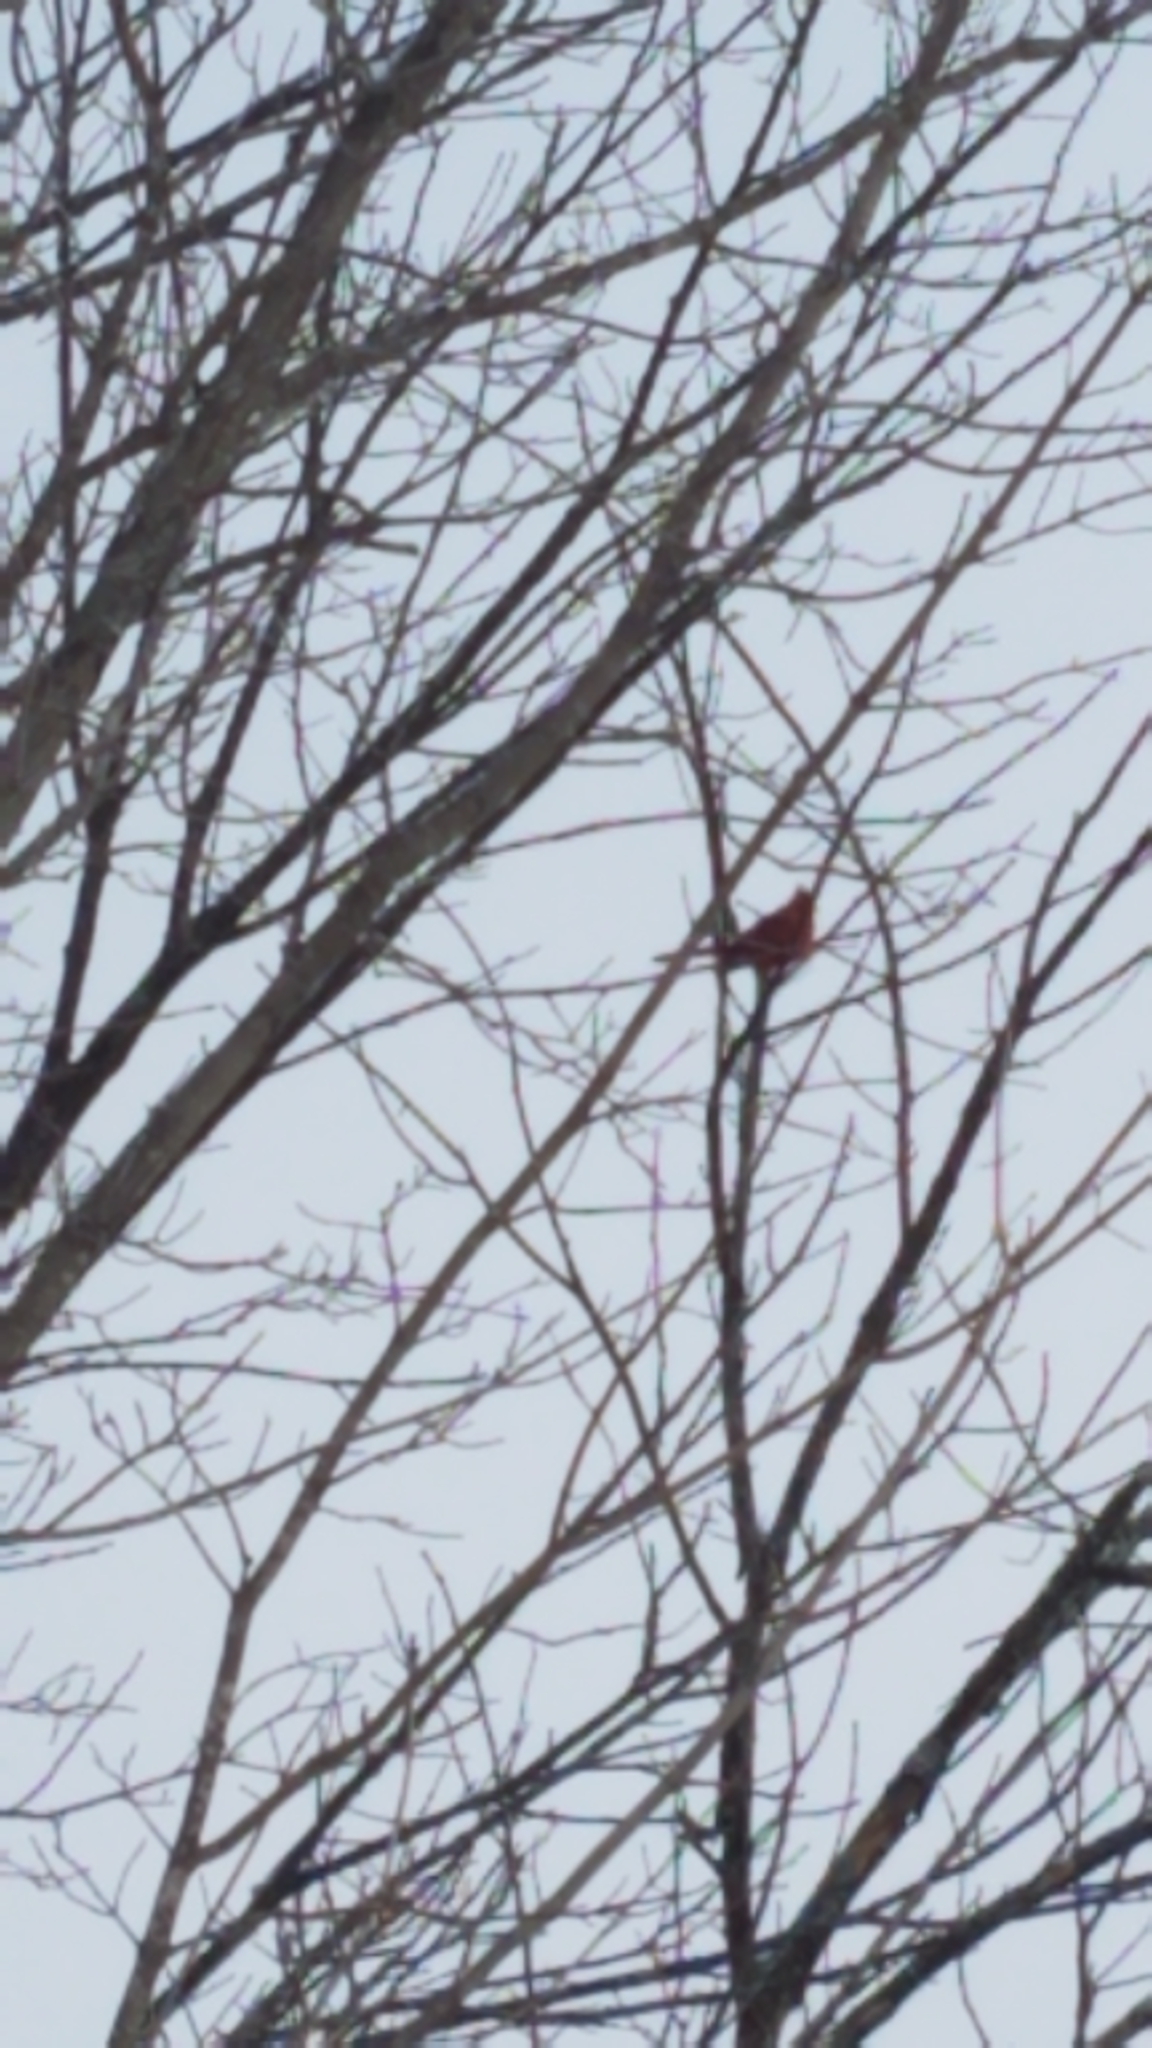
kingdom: Animalia
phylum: Chordata
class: Aves
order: Passeriformes
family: Cardinalidae
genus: Cardinalis
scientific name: Cardinalis cardinalis
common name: Northern cardinal
